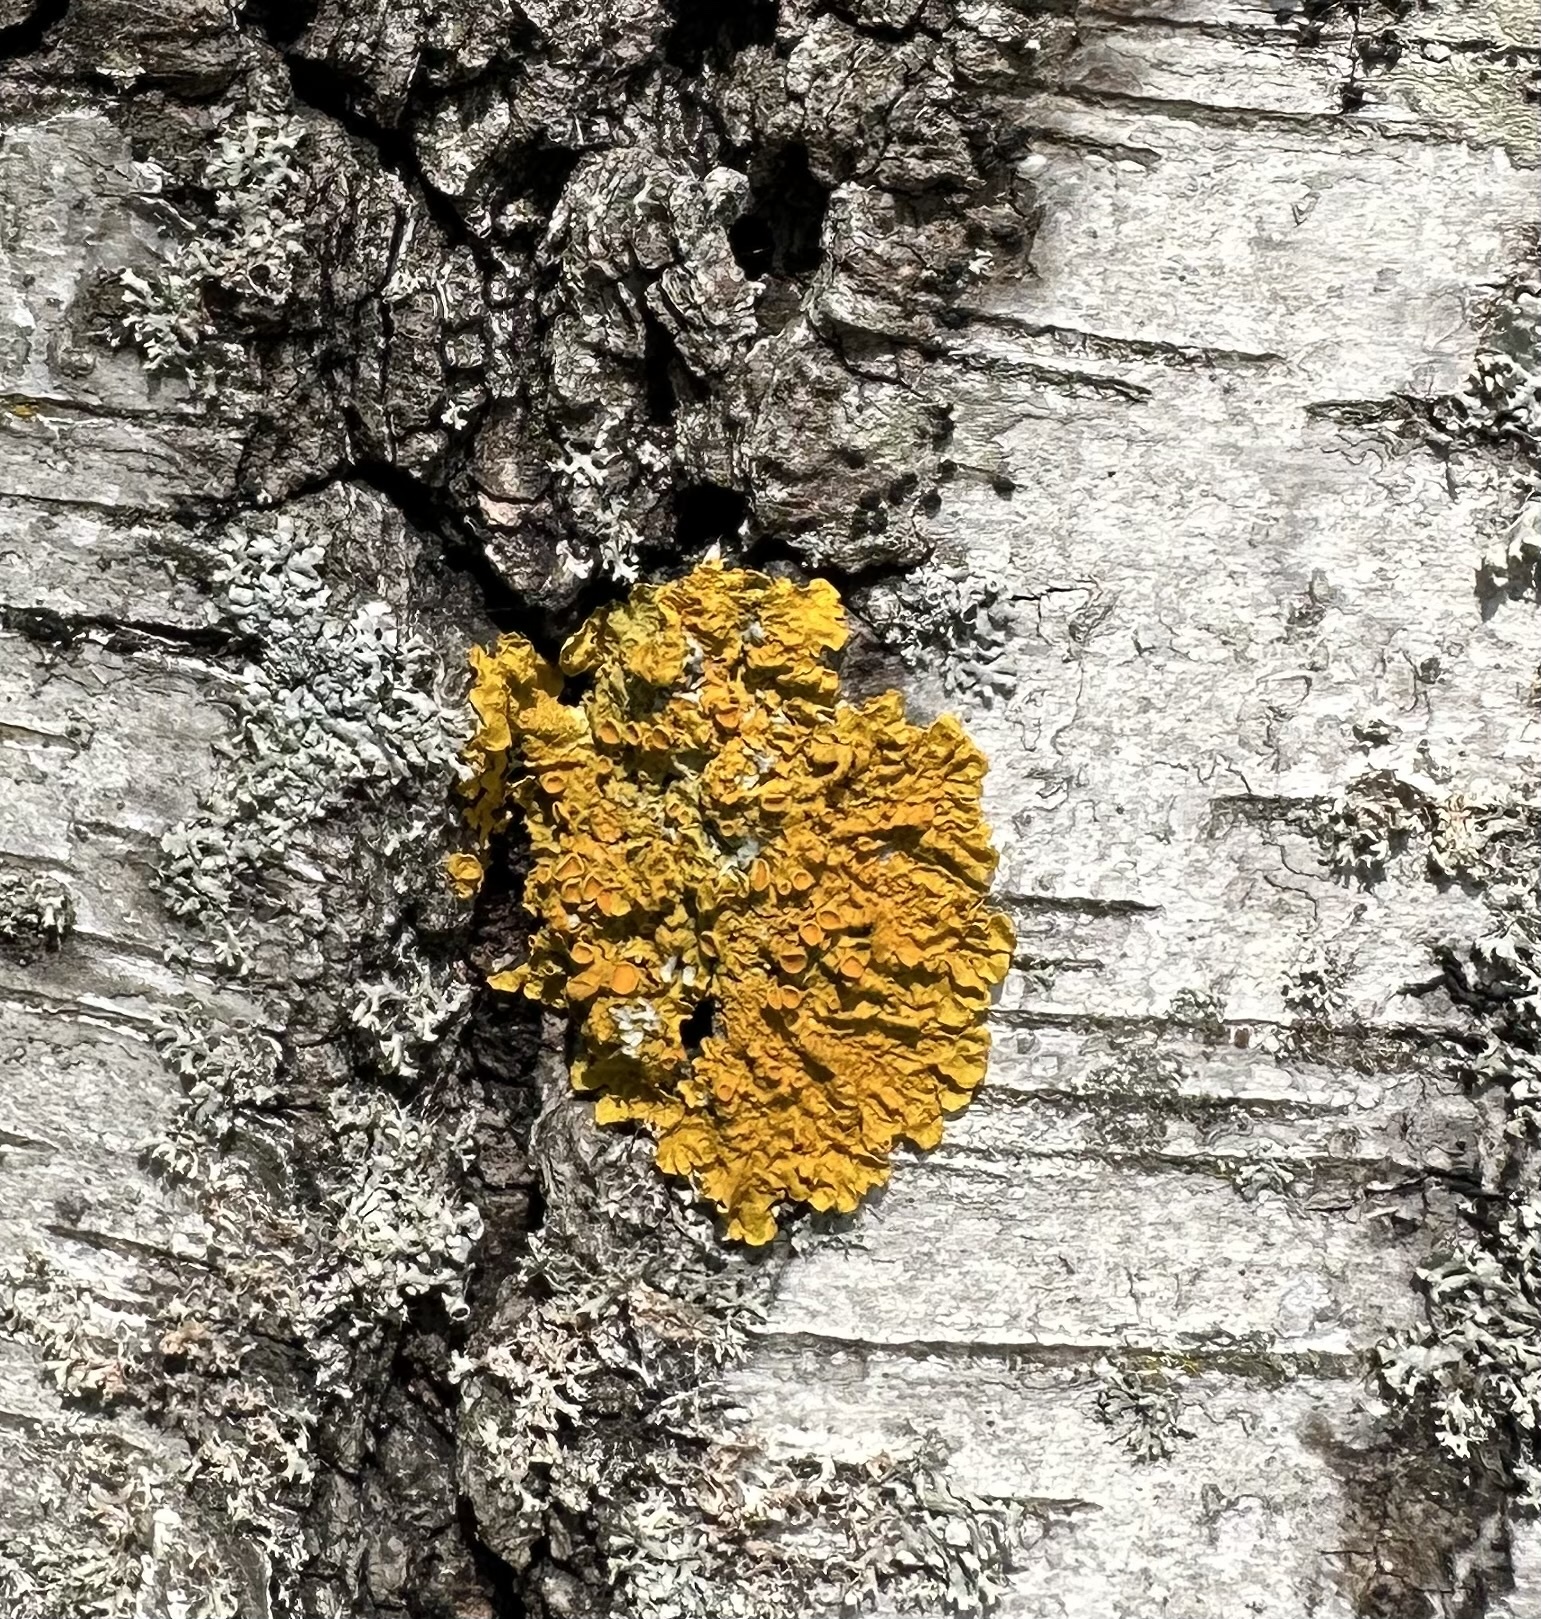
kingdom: Fungi
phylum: Ascomycota
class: Lecanoromycetes
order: Teloschistales
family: Teloschistaceae
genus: Xanthoria
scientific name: Xanthoria parietina
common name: Common orange lichen
